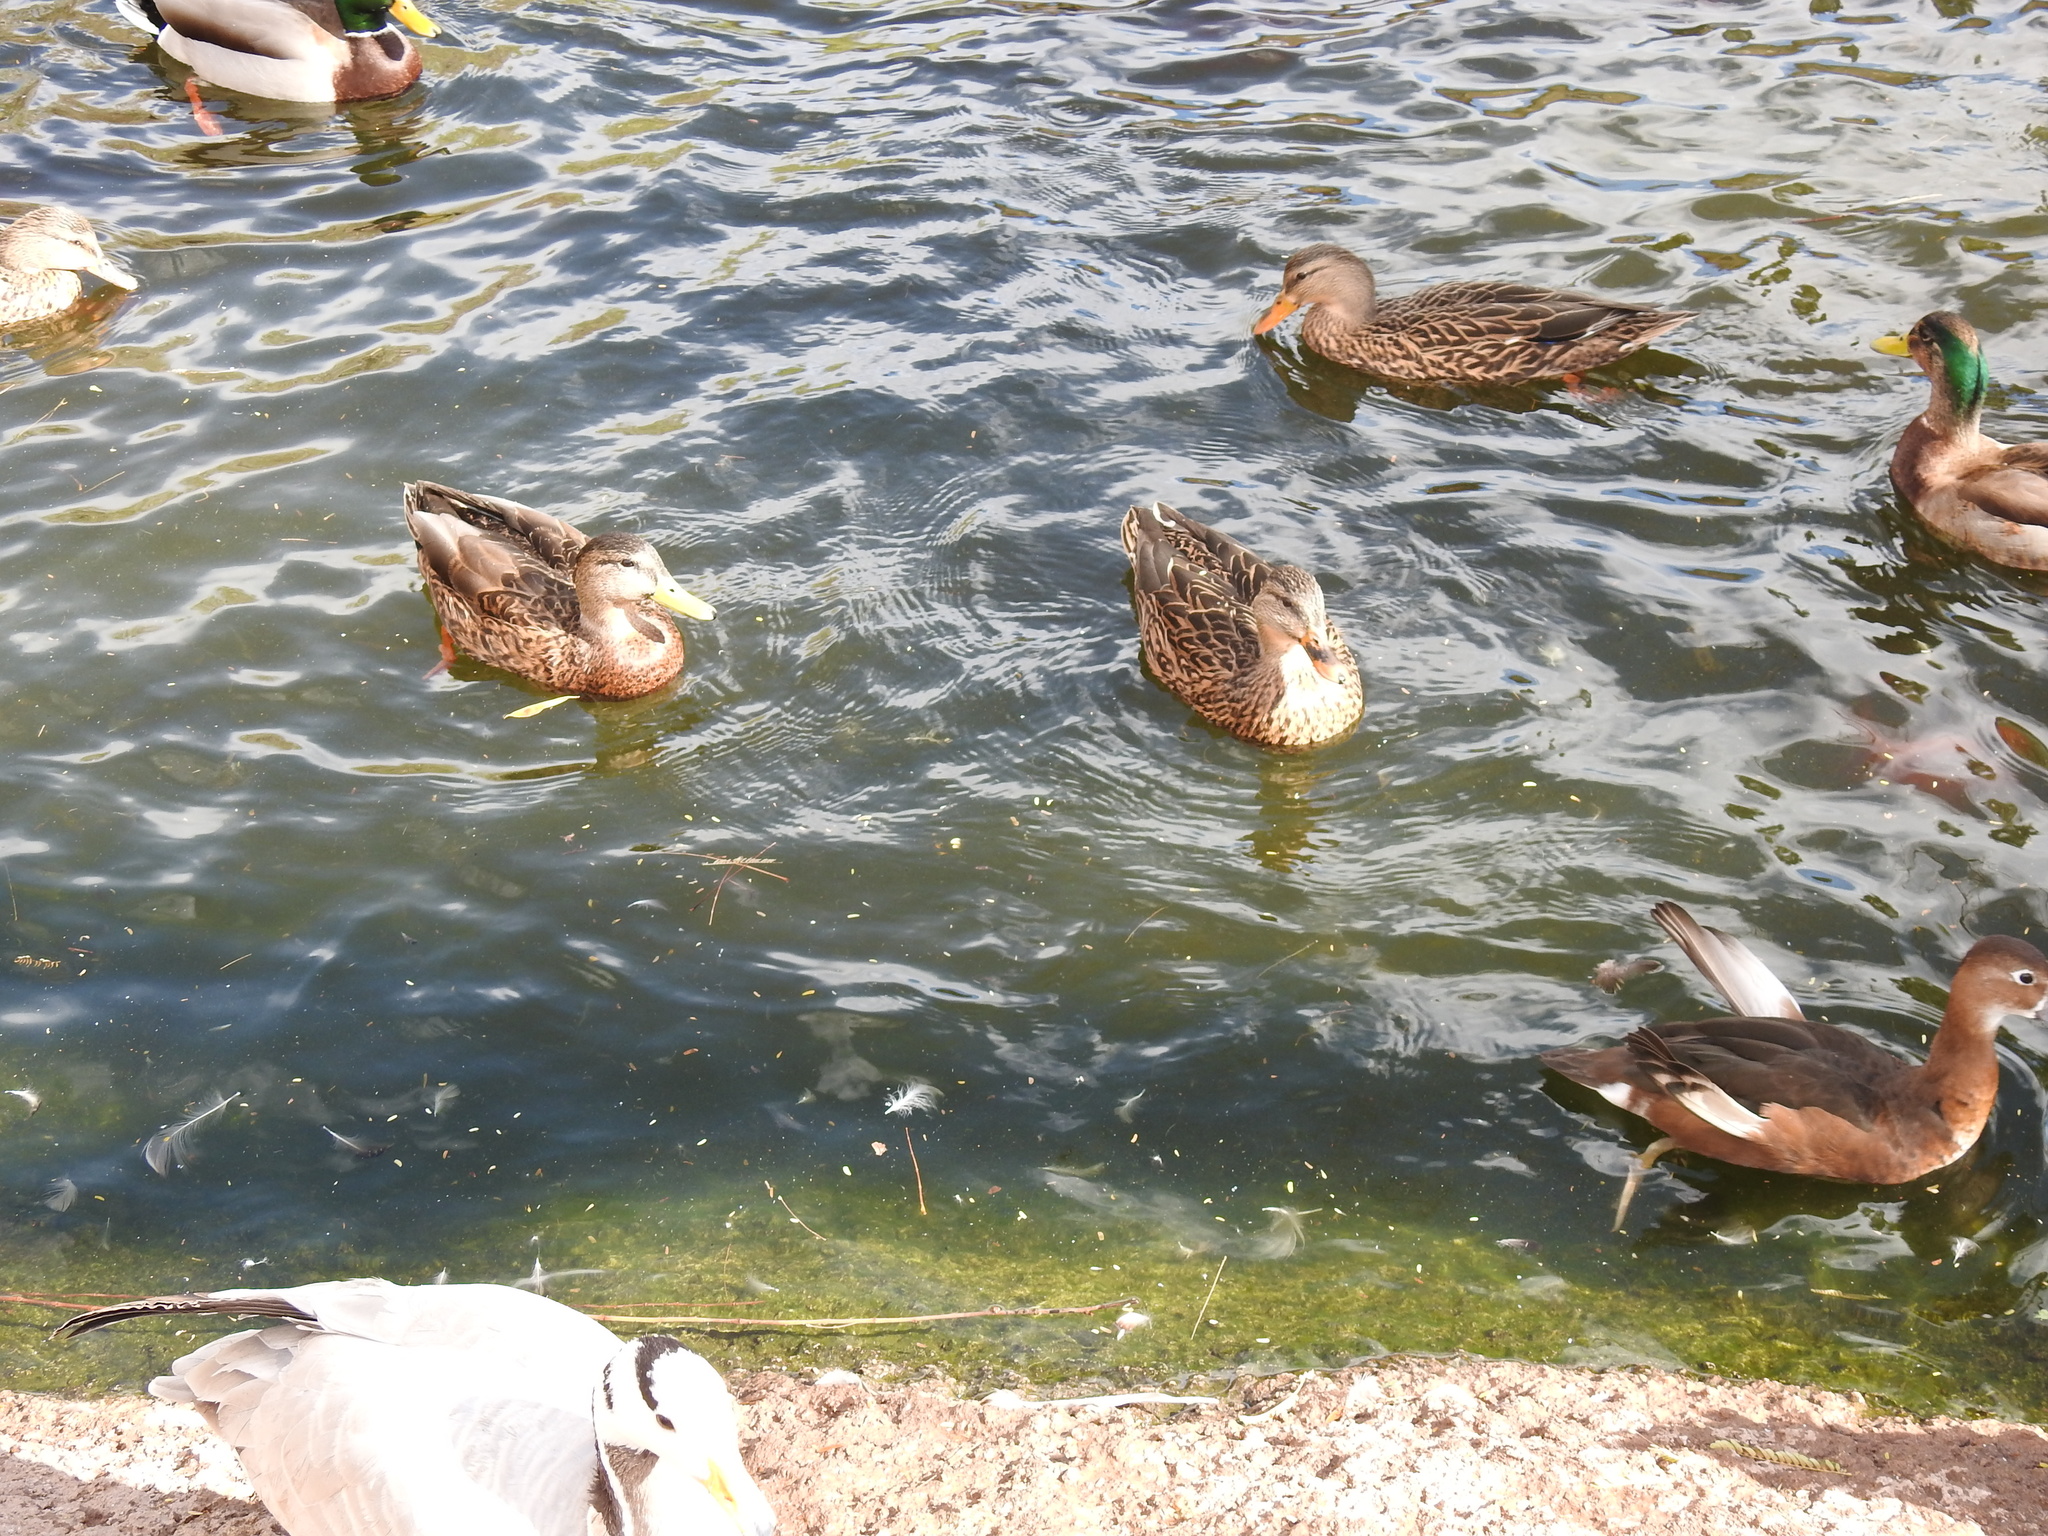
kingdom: Animalia
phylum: Chordata
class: Aves
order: Anseriformes
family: Anatidae
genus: Anas
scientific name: Anas platyrhynchos
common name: Mallard
